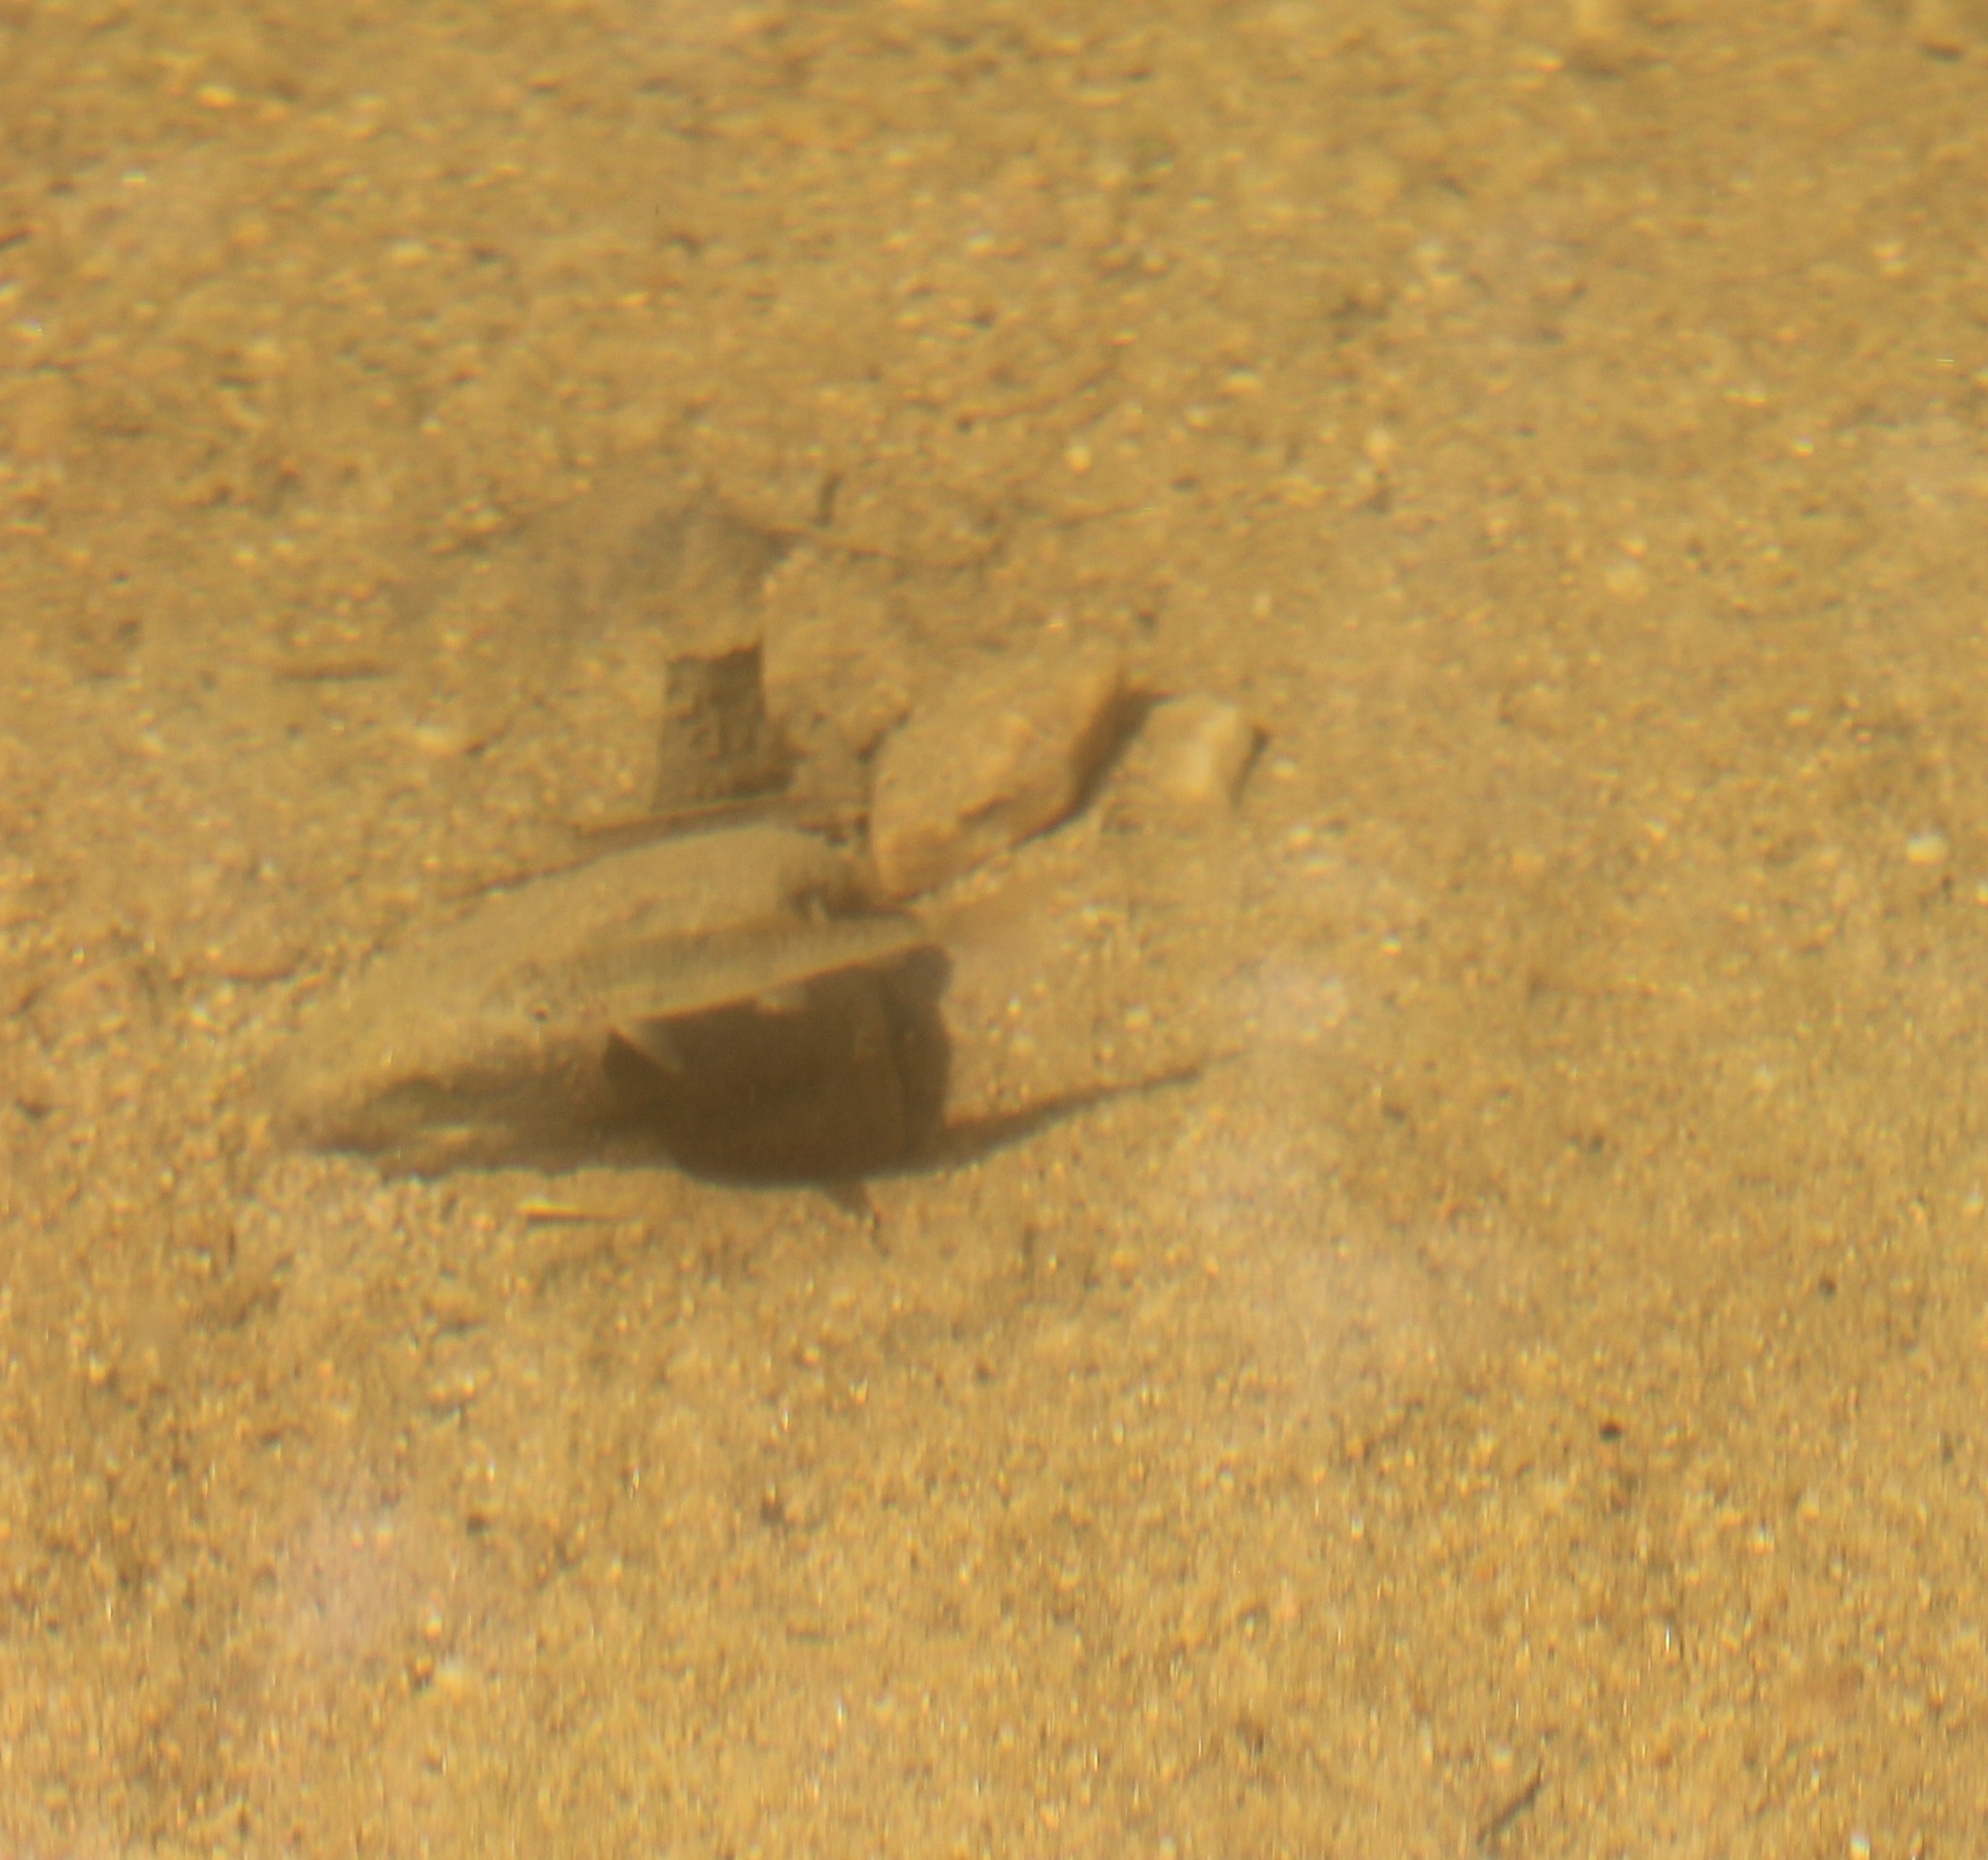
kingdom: Animalia
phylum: Chordata
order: Cypriniformes
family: Catostomidae
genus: Catostomus
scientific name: Catostomus commersonii
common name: White sucker
